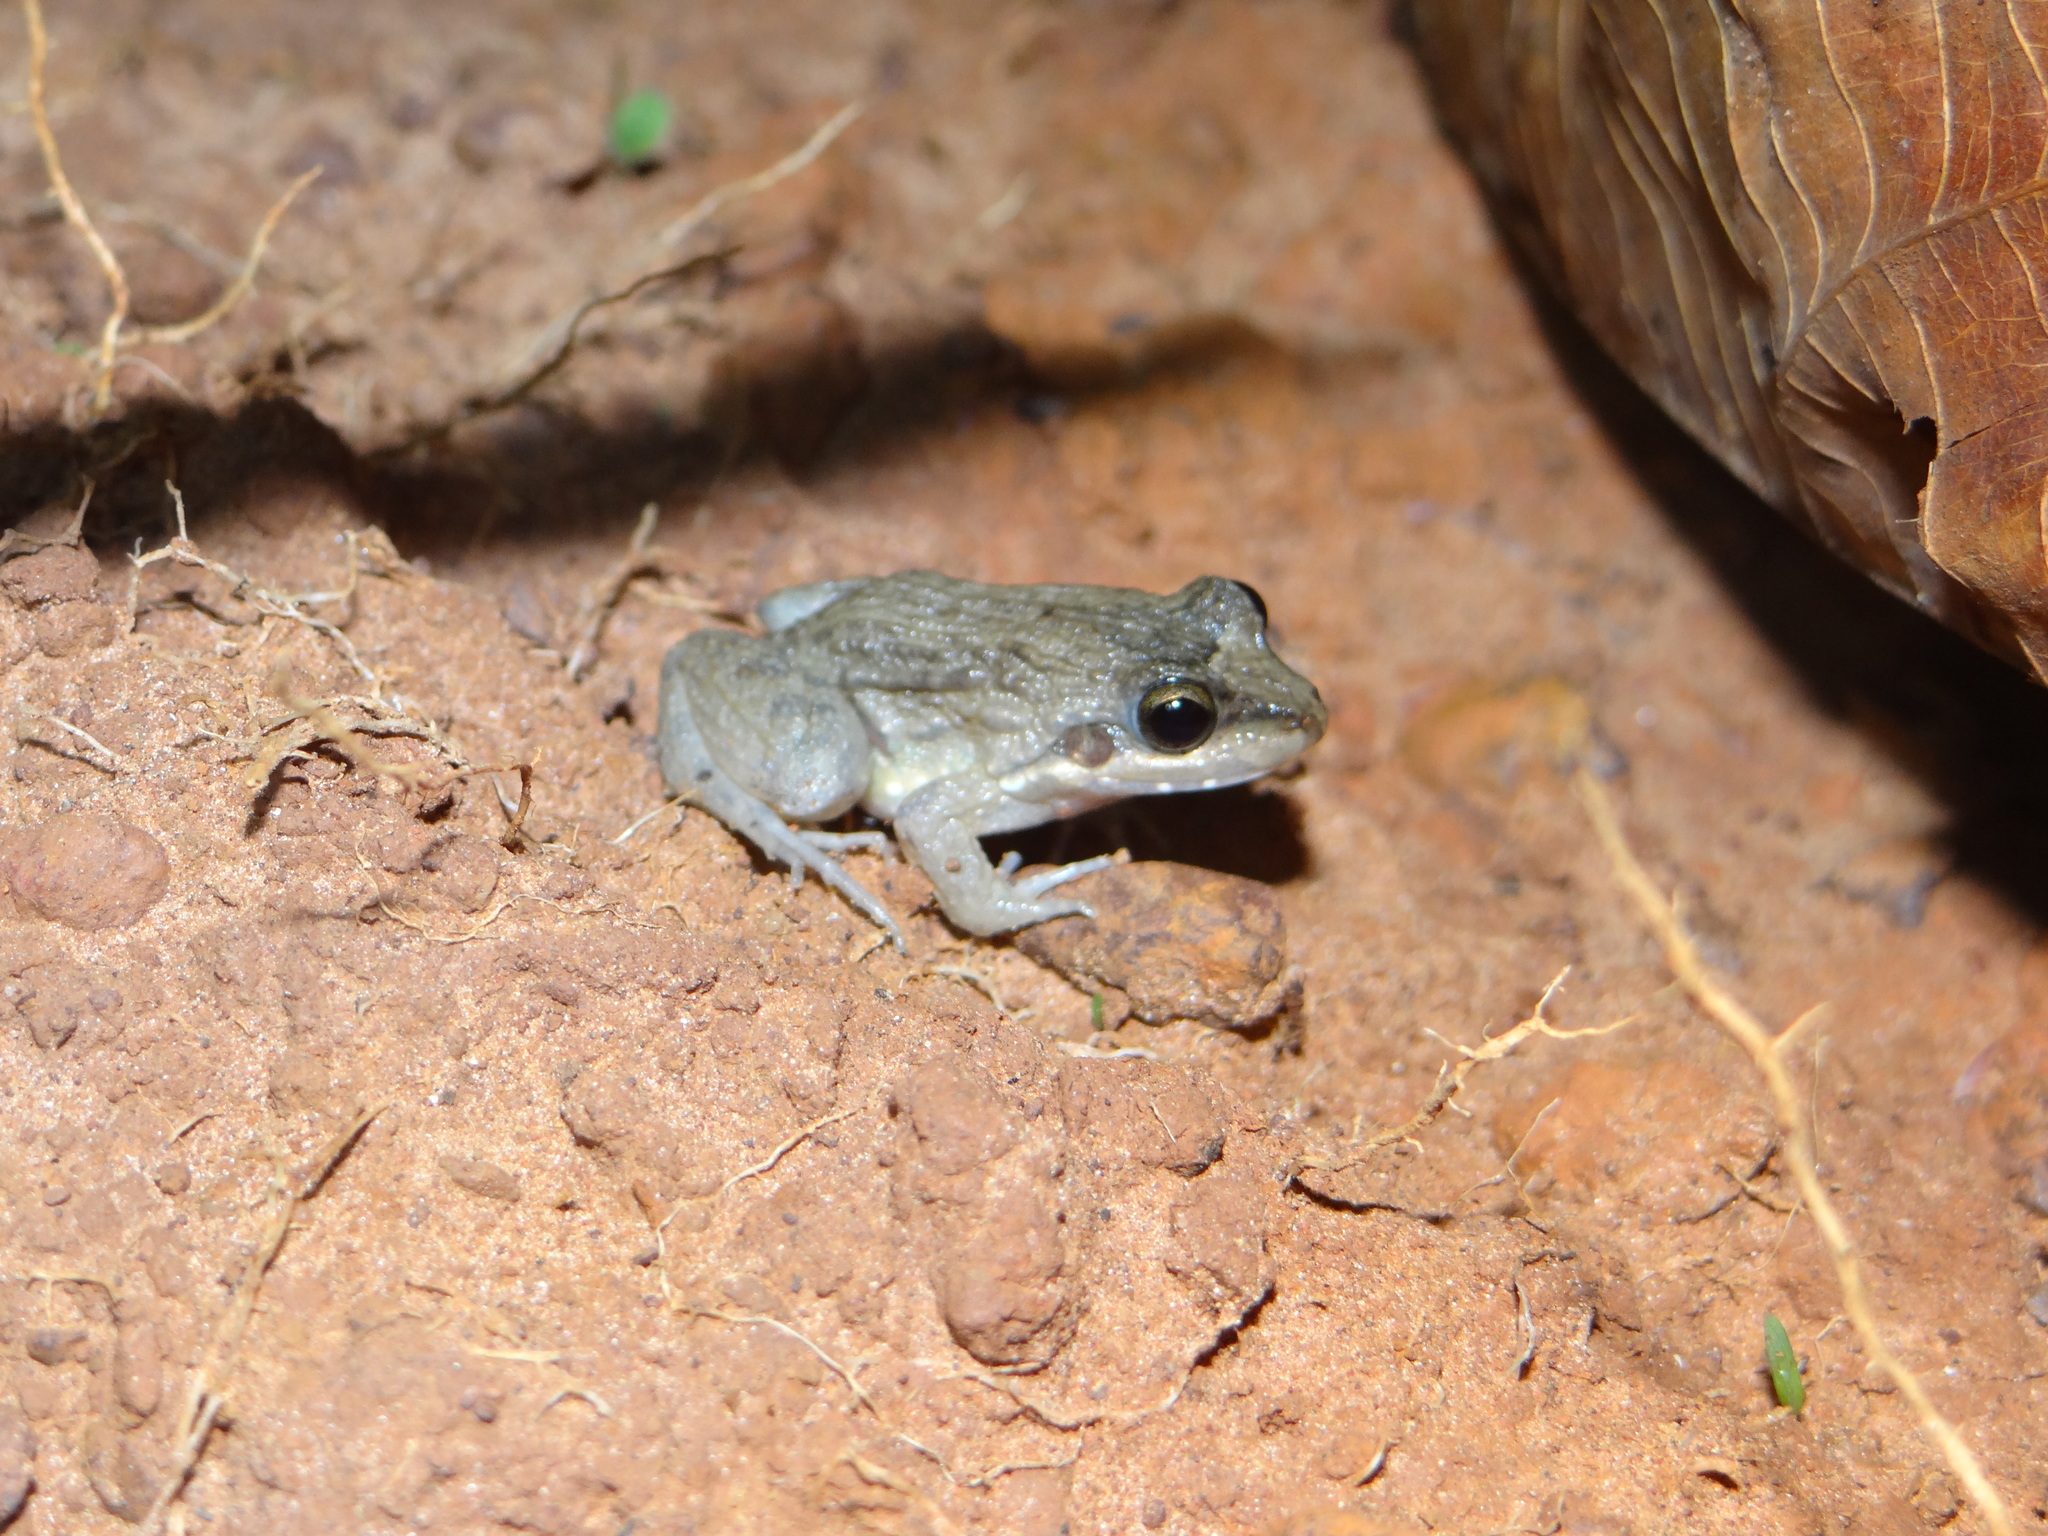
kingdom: Animalia
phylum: Chordata
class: Amphibia
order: Anura
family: Leptodactylidae
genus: Leptodactylus
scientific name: Leptodactylus podicipinus
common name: Pointedbelly frog
